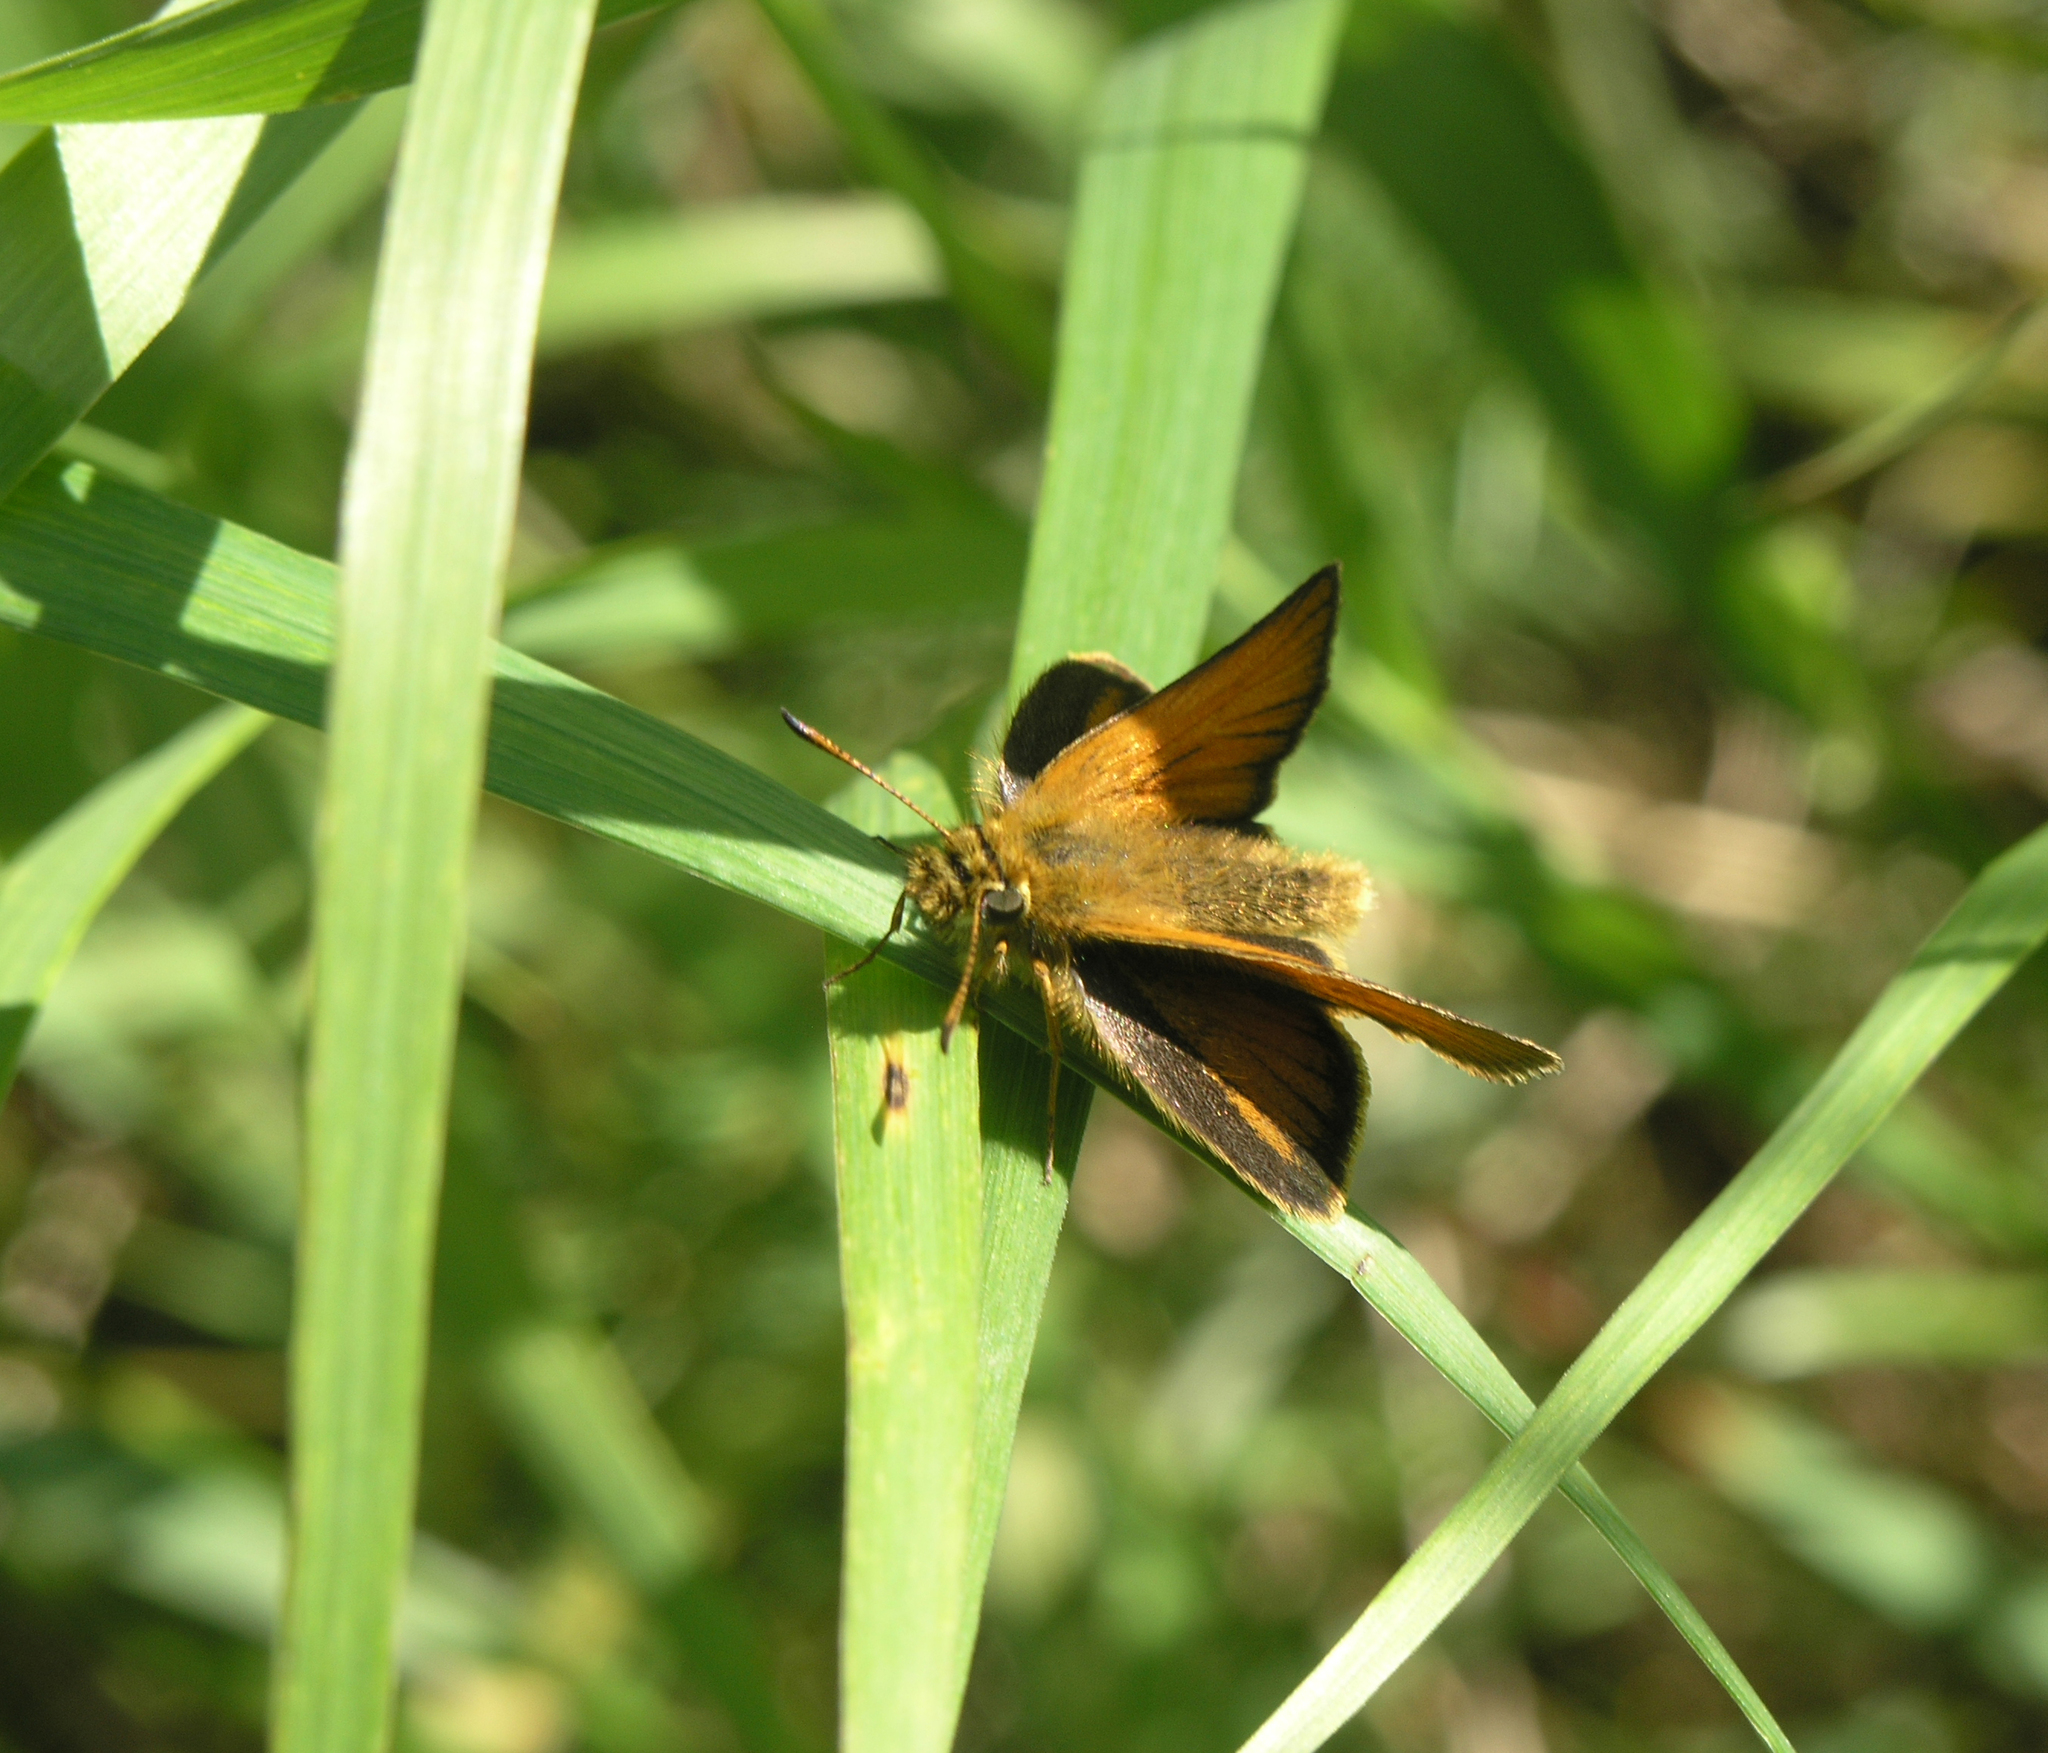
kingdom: Animalia
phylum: Arthropoda
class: Insecta
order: Lepidoptera
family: Hesperiidae
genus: Thymelicus
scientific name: Thymelicus lineola
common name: Essex skipper
